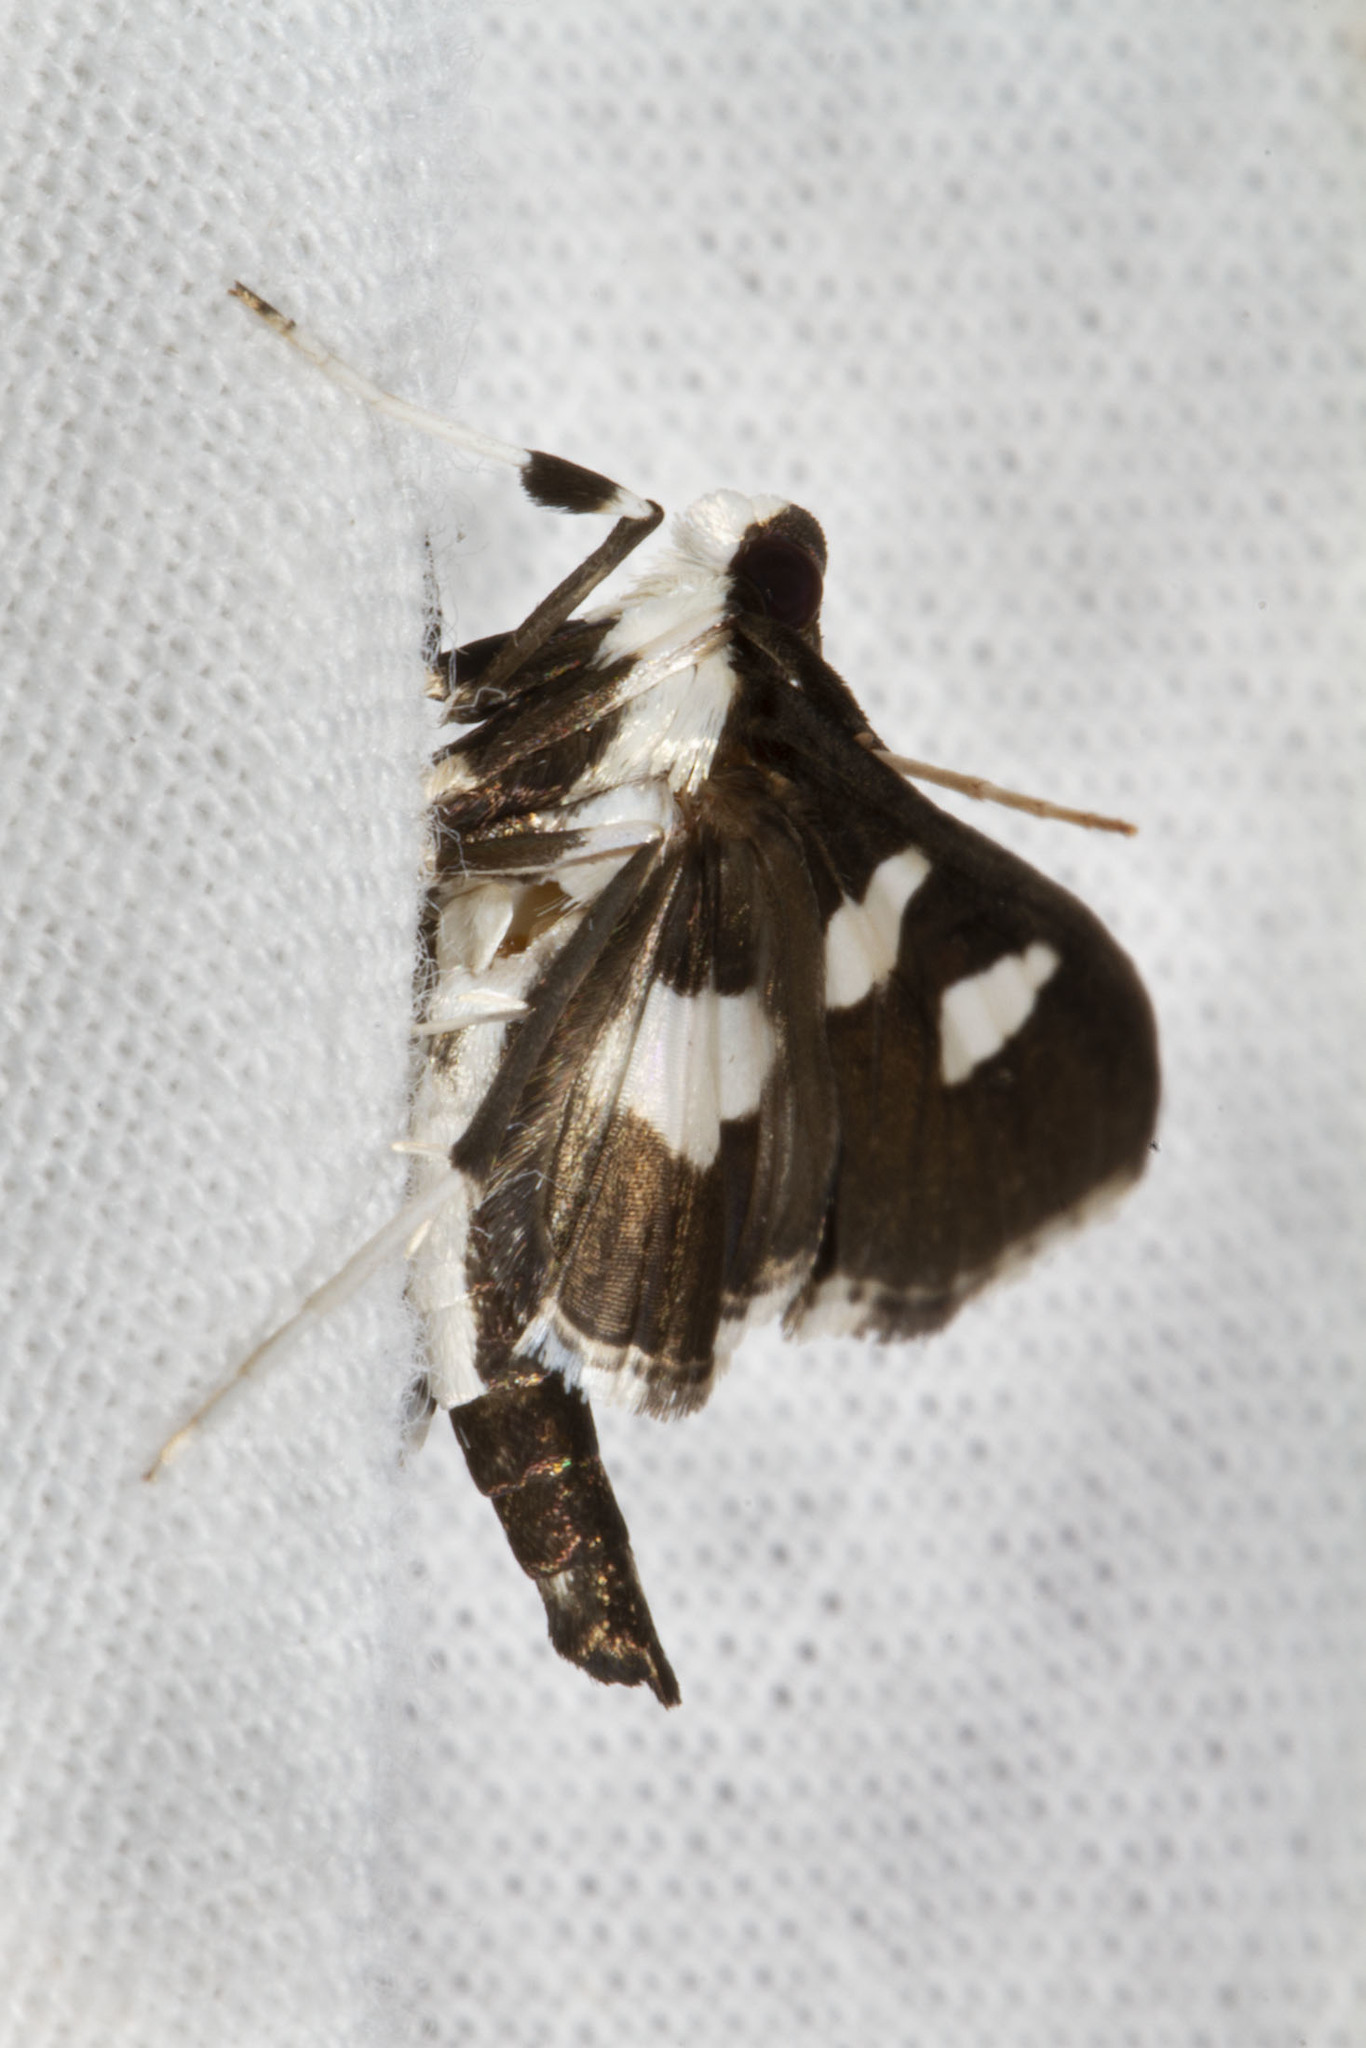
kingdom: Animalia
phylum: Arthropoda
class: Insecta
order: Lepidoptera
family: Crambidae
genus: Desmia
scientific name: Desmia funeralis
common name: Grape leaf folder moth
